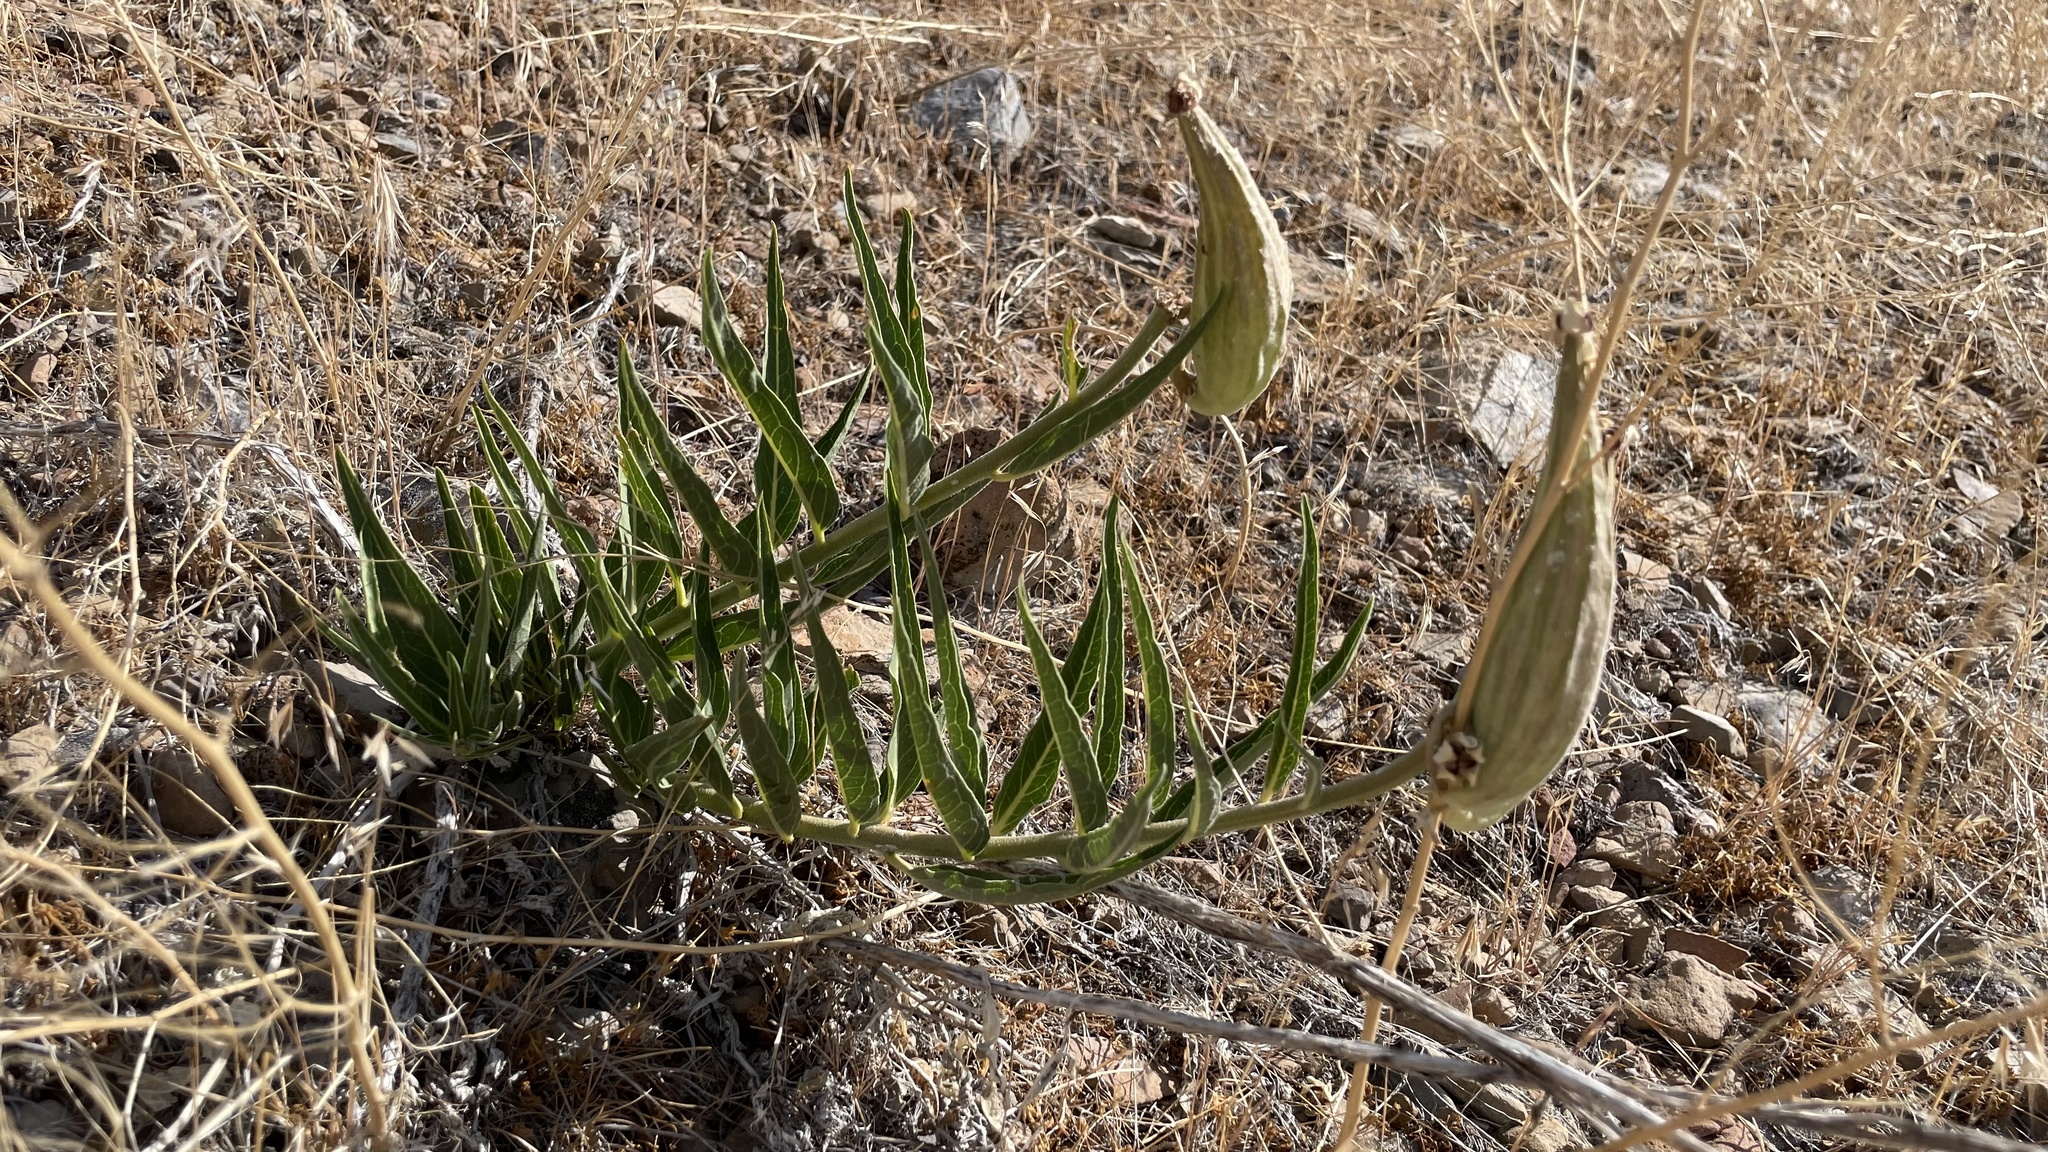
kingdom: Plantae
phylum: Tracheophyta
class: Magnoliopsida
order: Gentianales
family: Apocynaceae
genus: Asclepias
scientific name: Asclepias asperula
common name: Antelope horns
